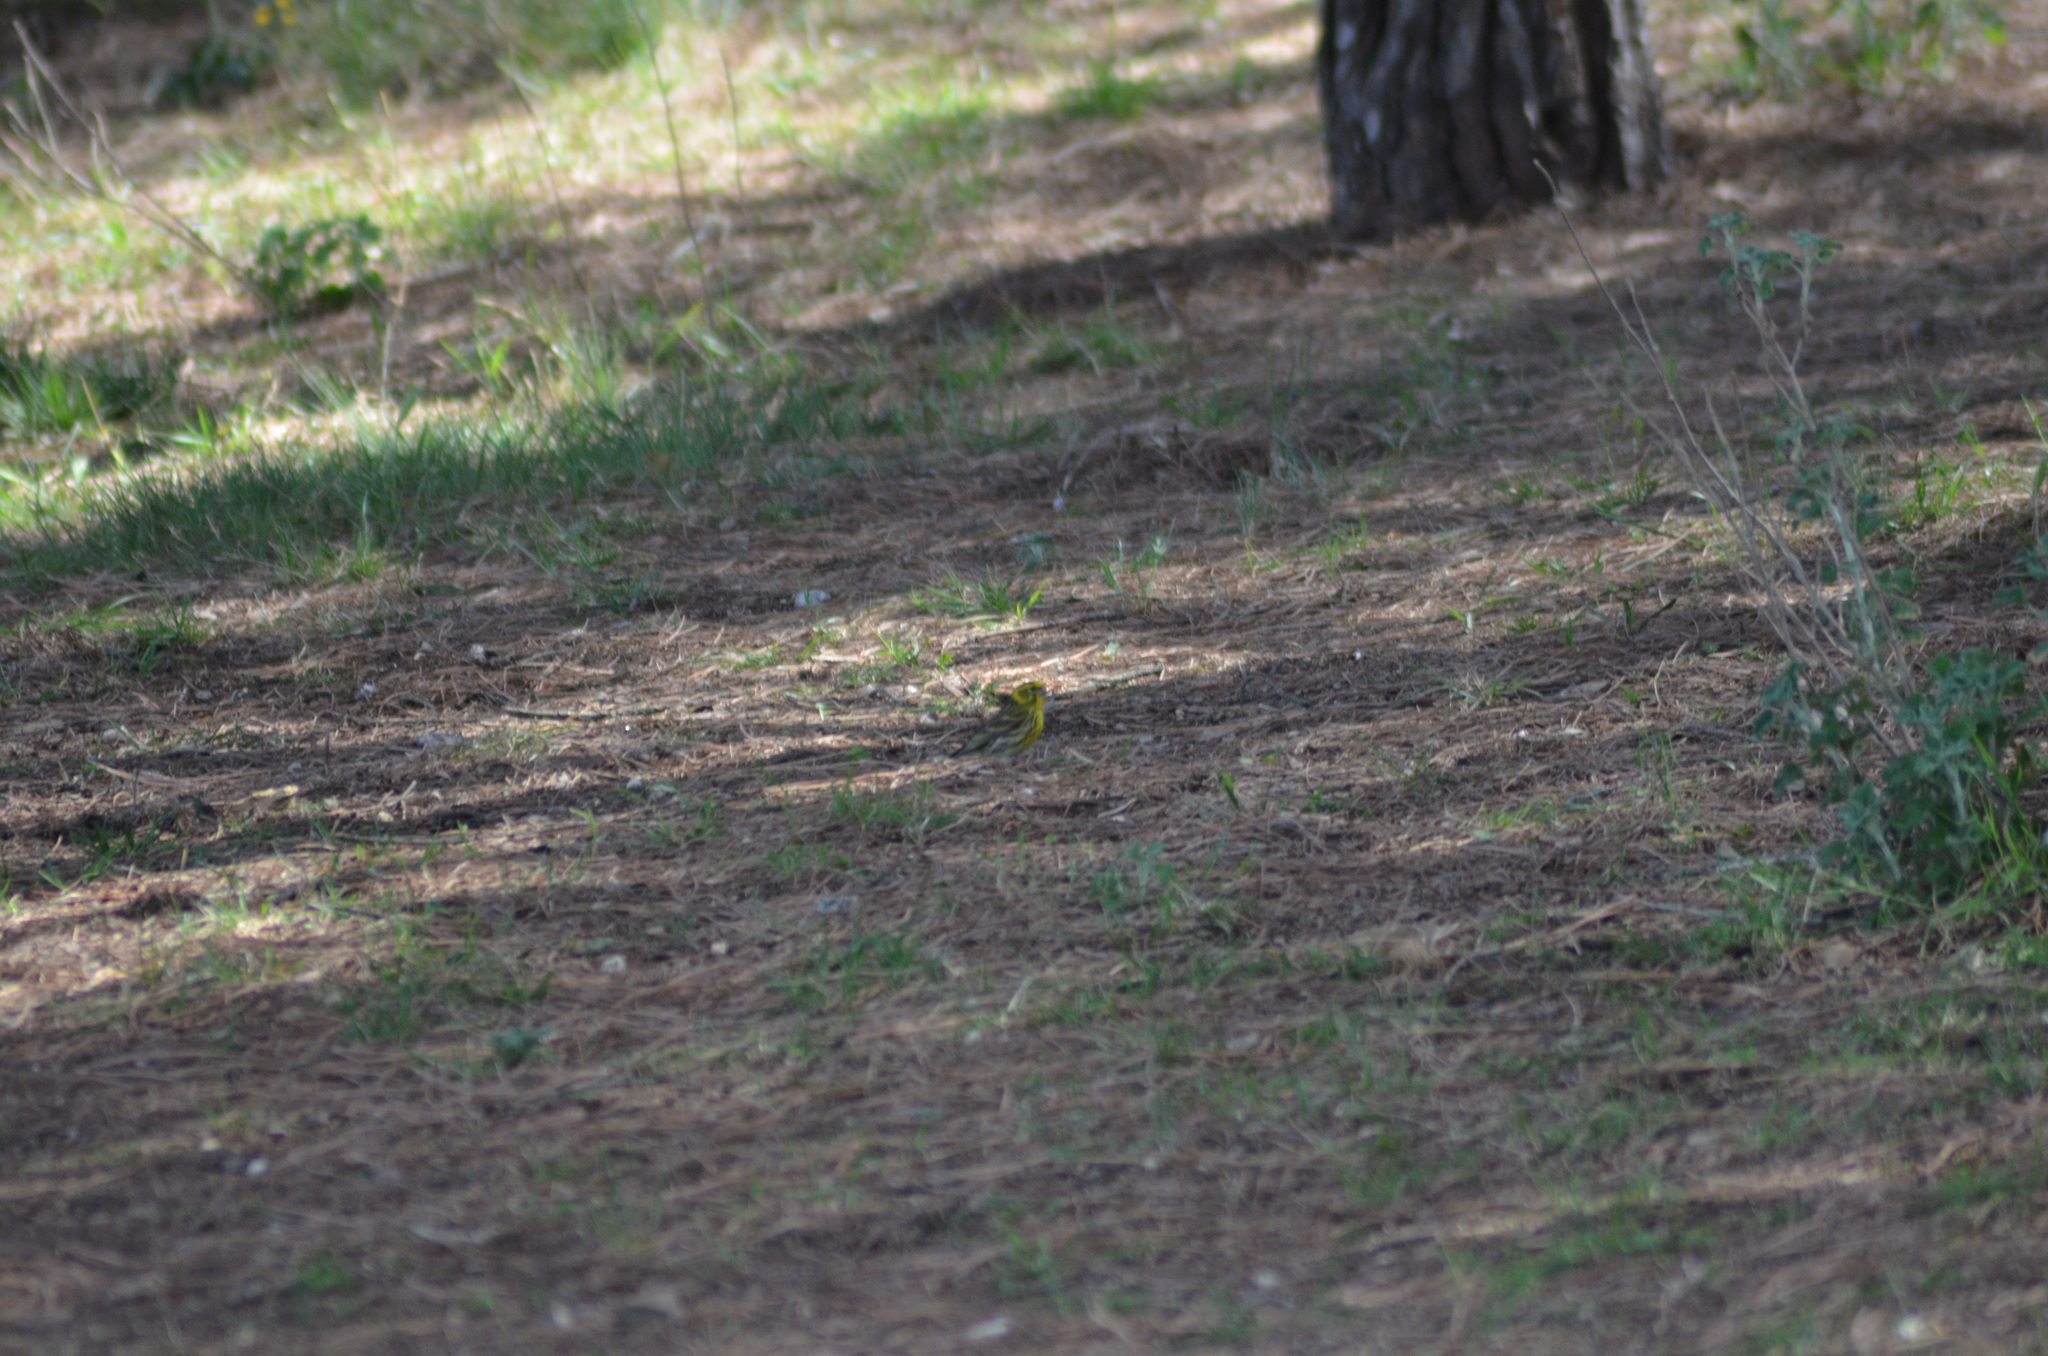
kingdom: Animalia
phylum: Chordata
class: Aves
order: Passeriformes
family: Fringillidae
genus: Serinus
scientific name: Serinus serinus
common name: European serin
